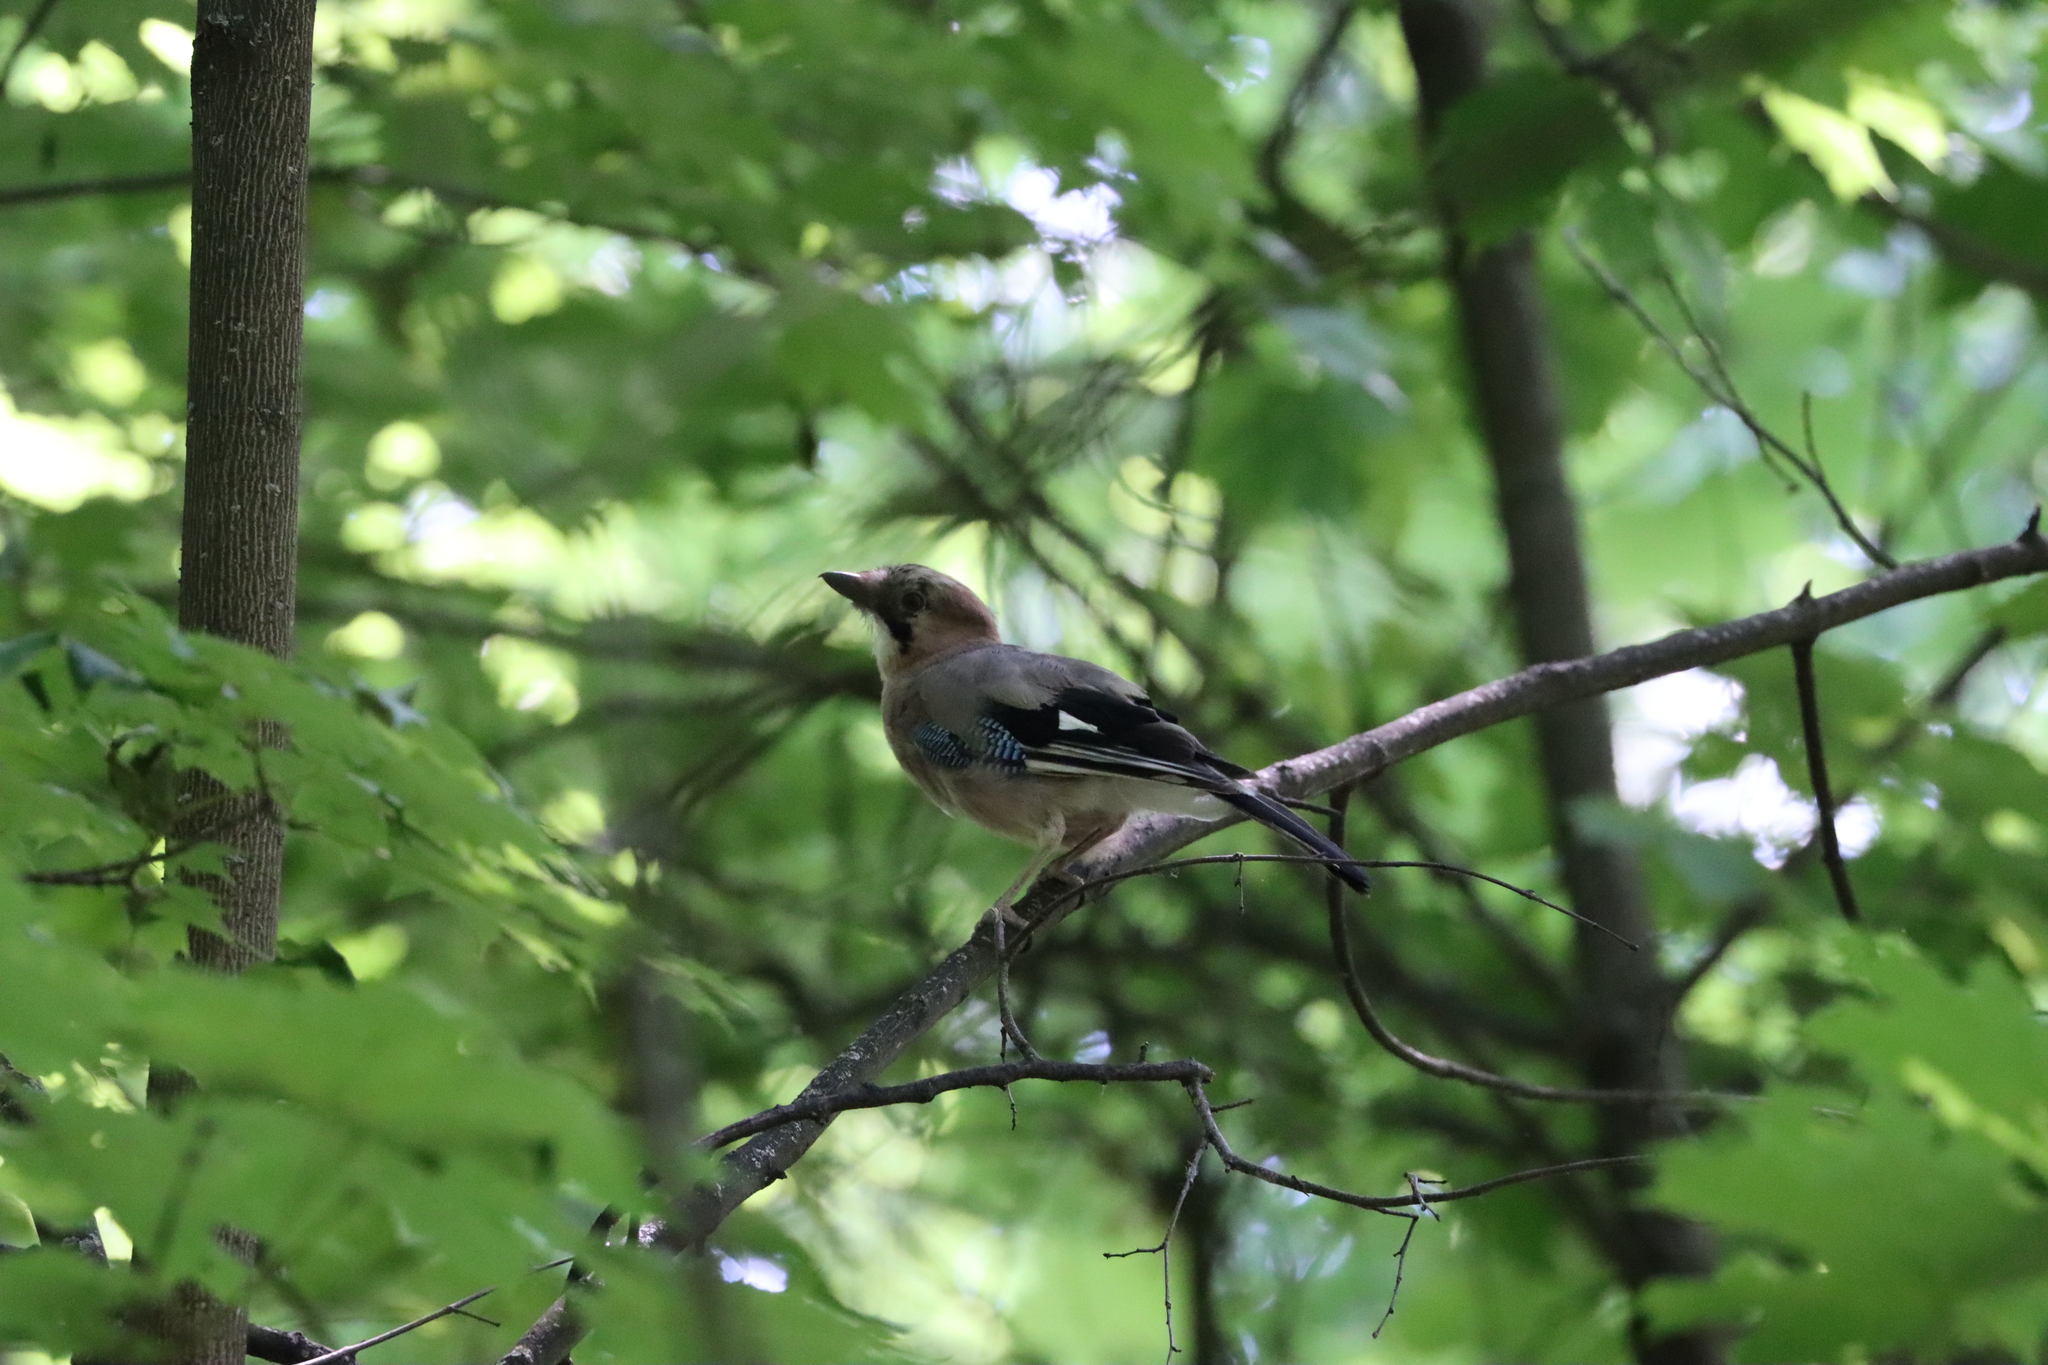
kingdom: Animalia
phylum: Chordata
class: Aves
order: Passeriformes
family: Corvidae
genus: Garrulus
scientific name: Garrulus glandarius
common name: Eurasian jay
